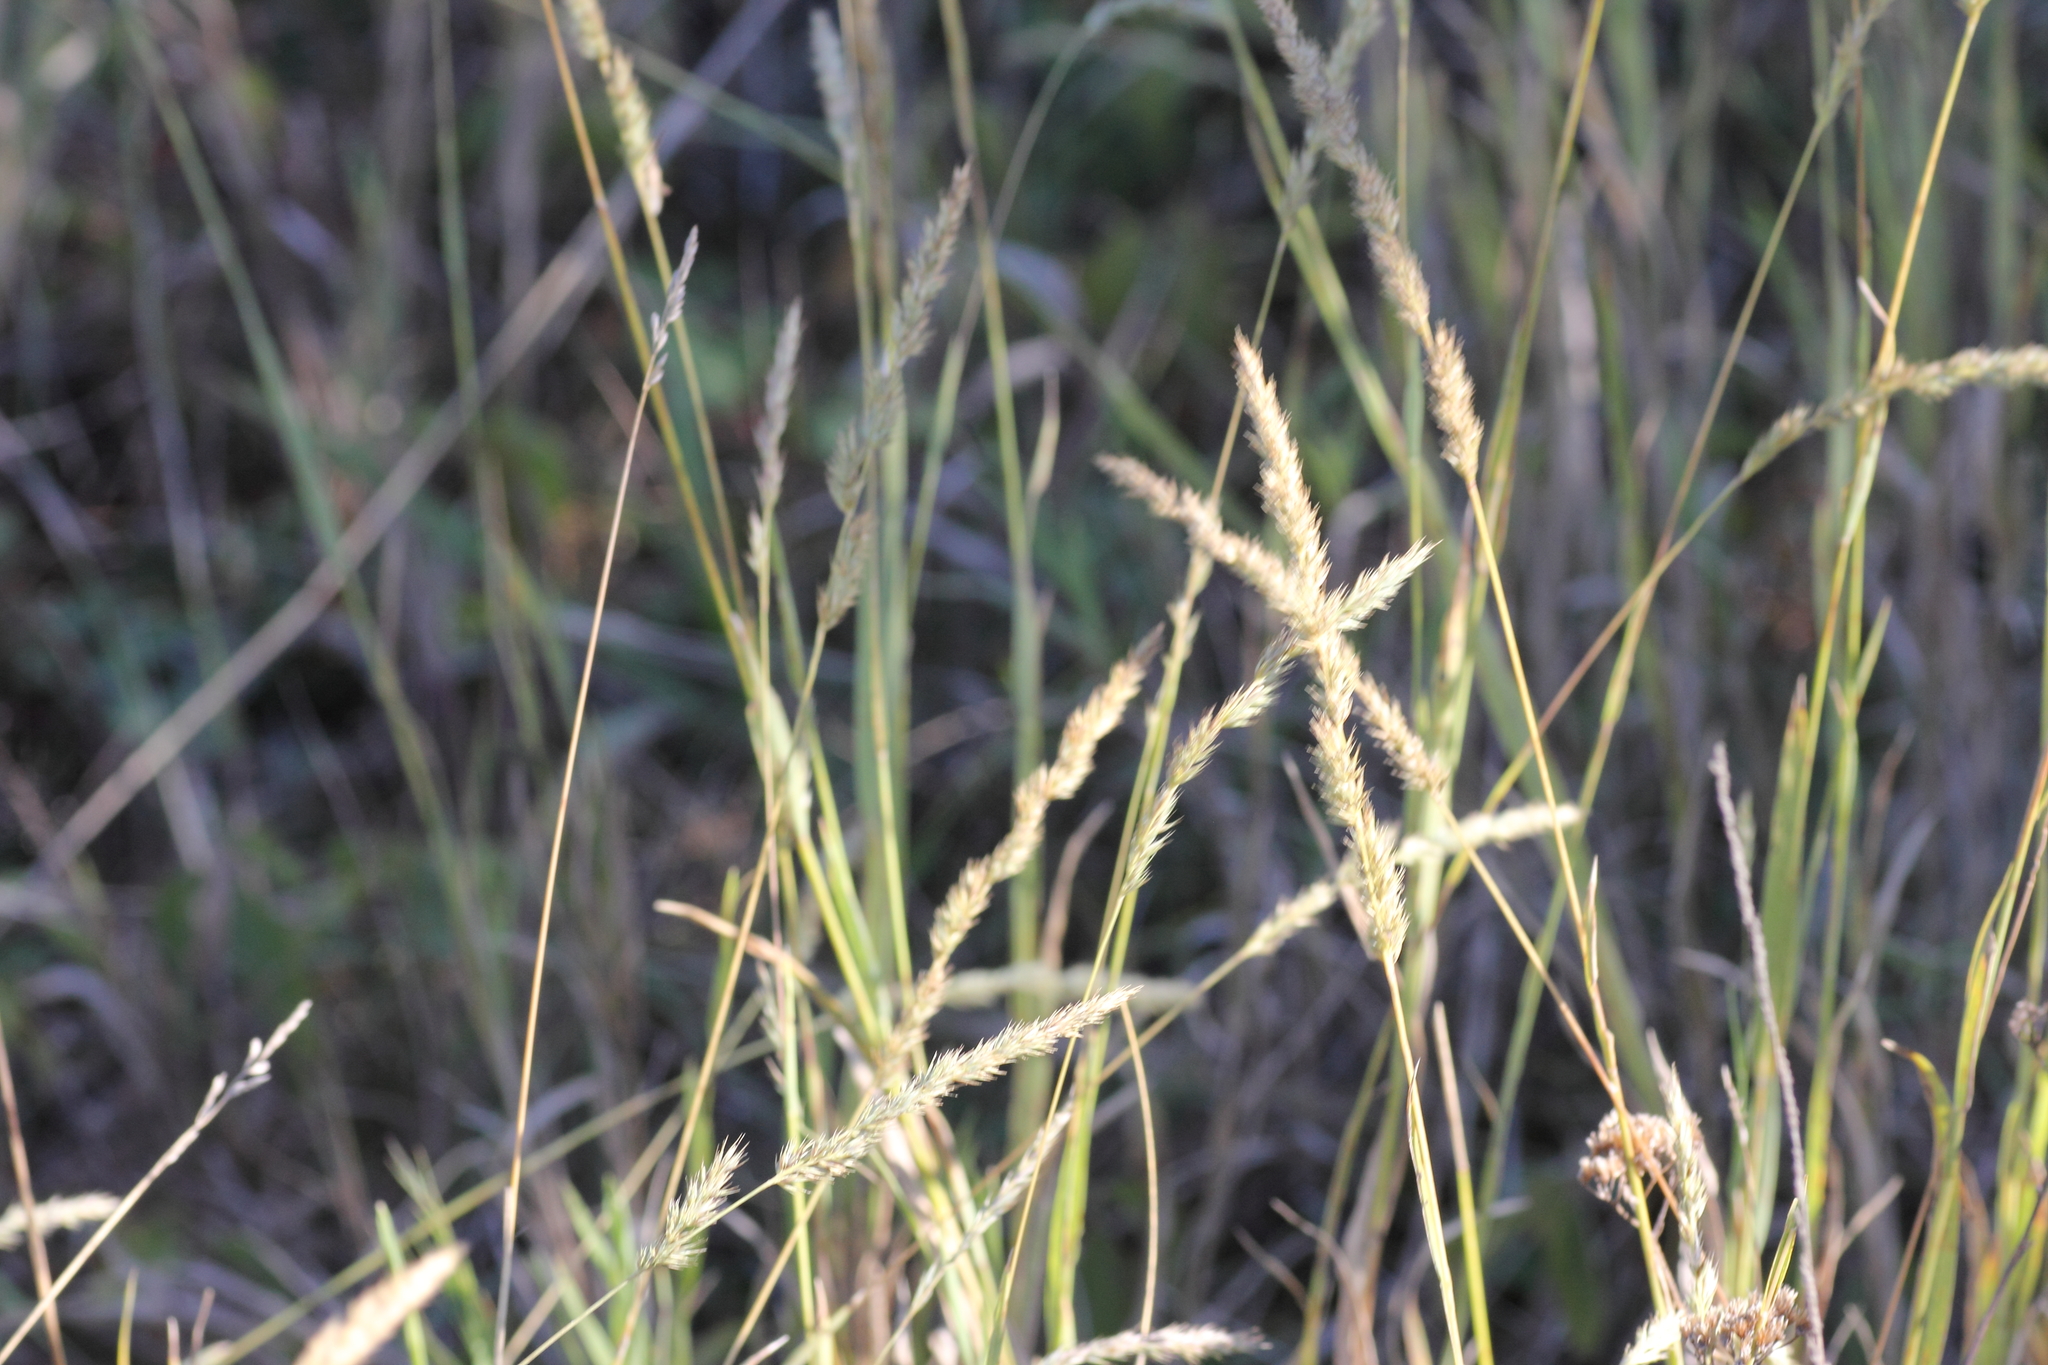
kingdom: Plantae
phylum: Tracheophyta
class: Liliopsida
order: Poales
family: Poaceae
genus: Muhlenbergia
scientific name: Muhlenbergia glomerata
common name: Bog muhly
